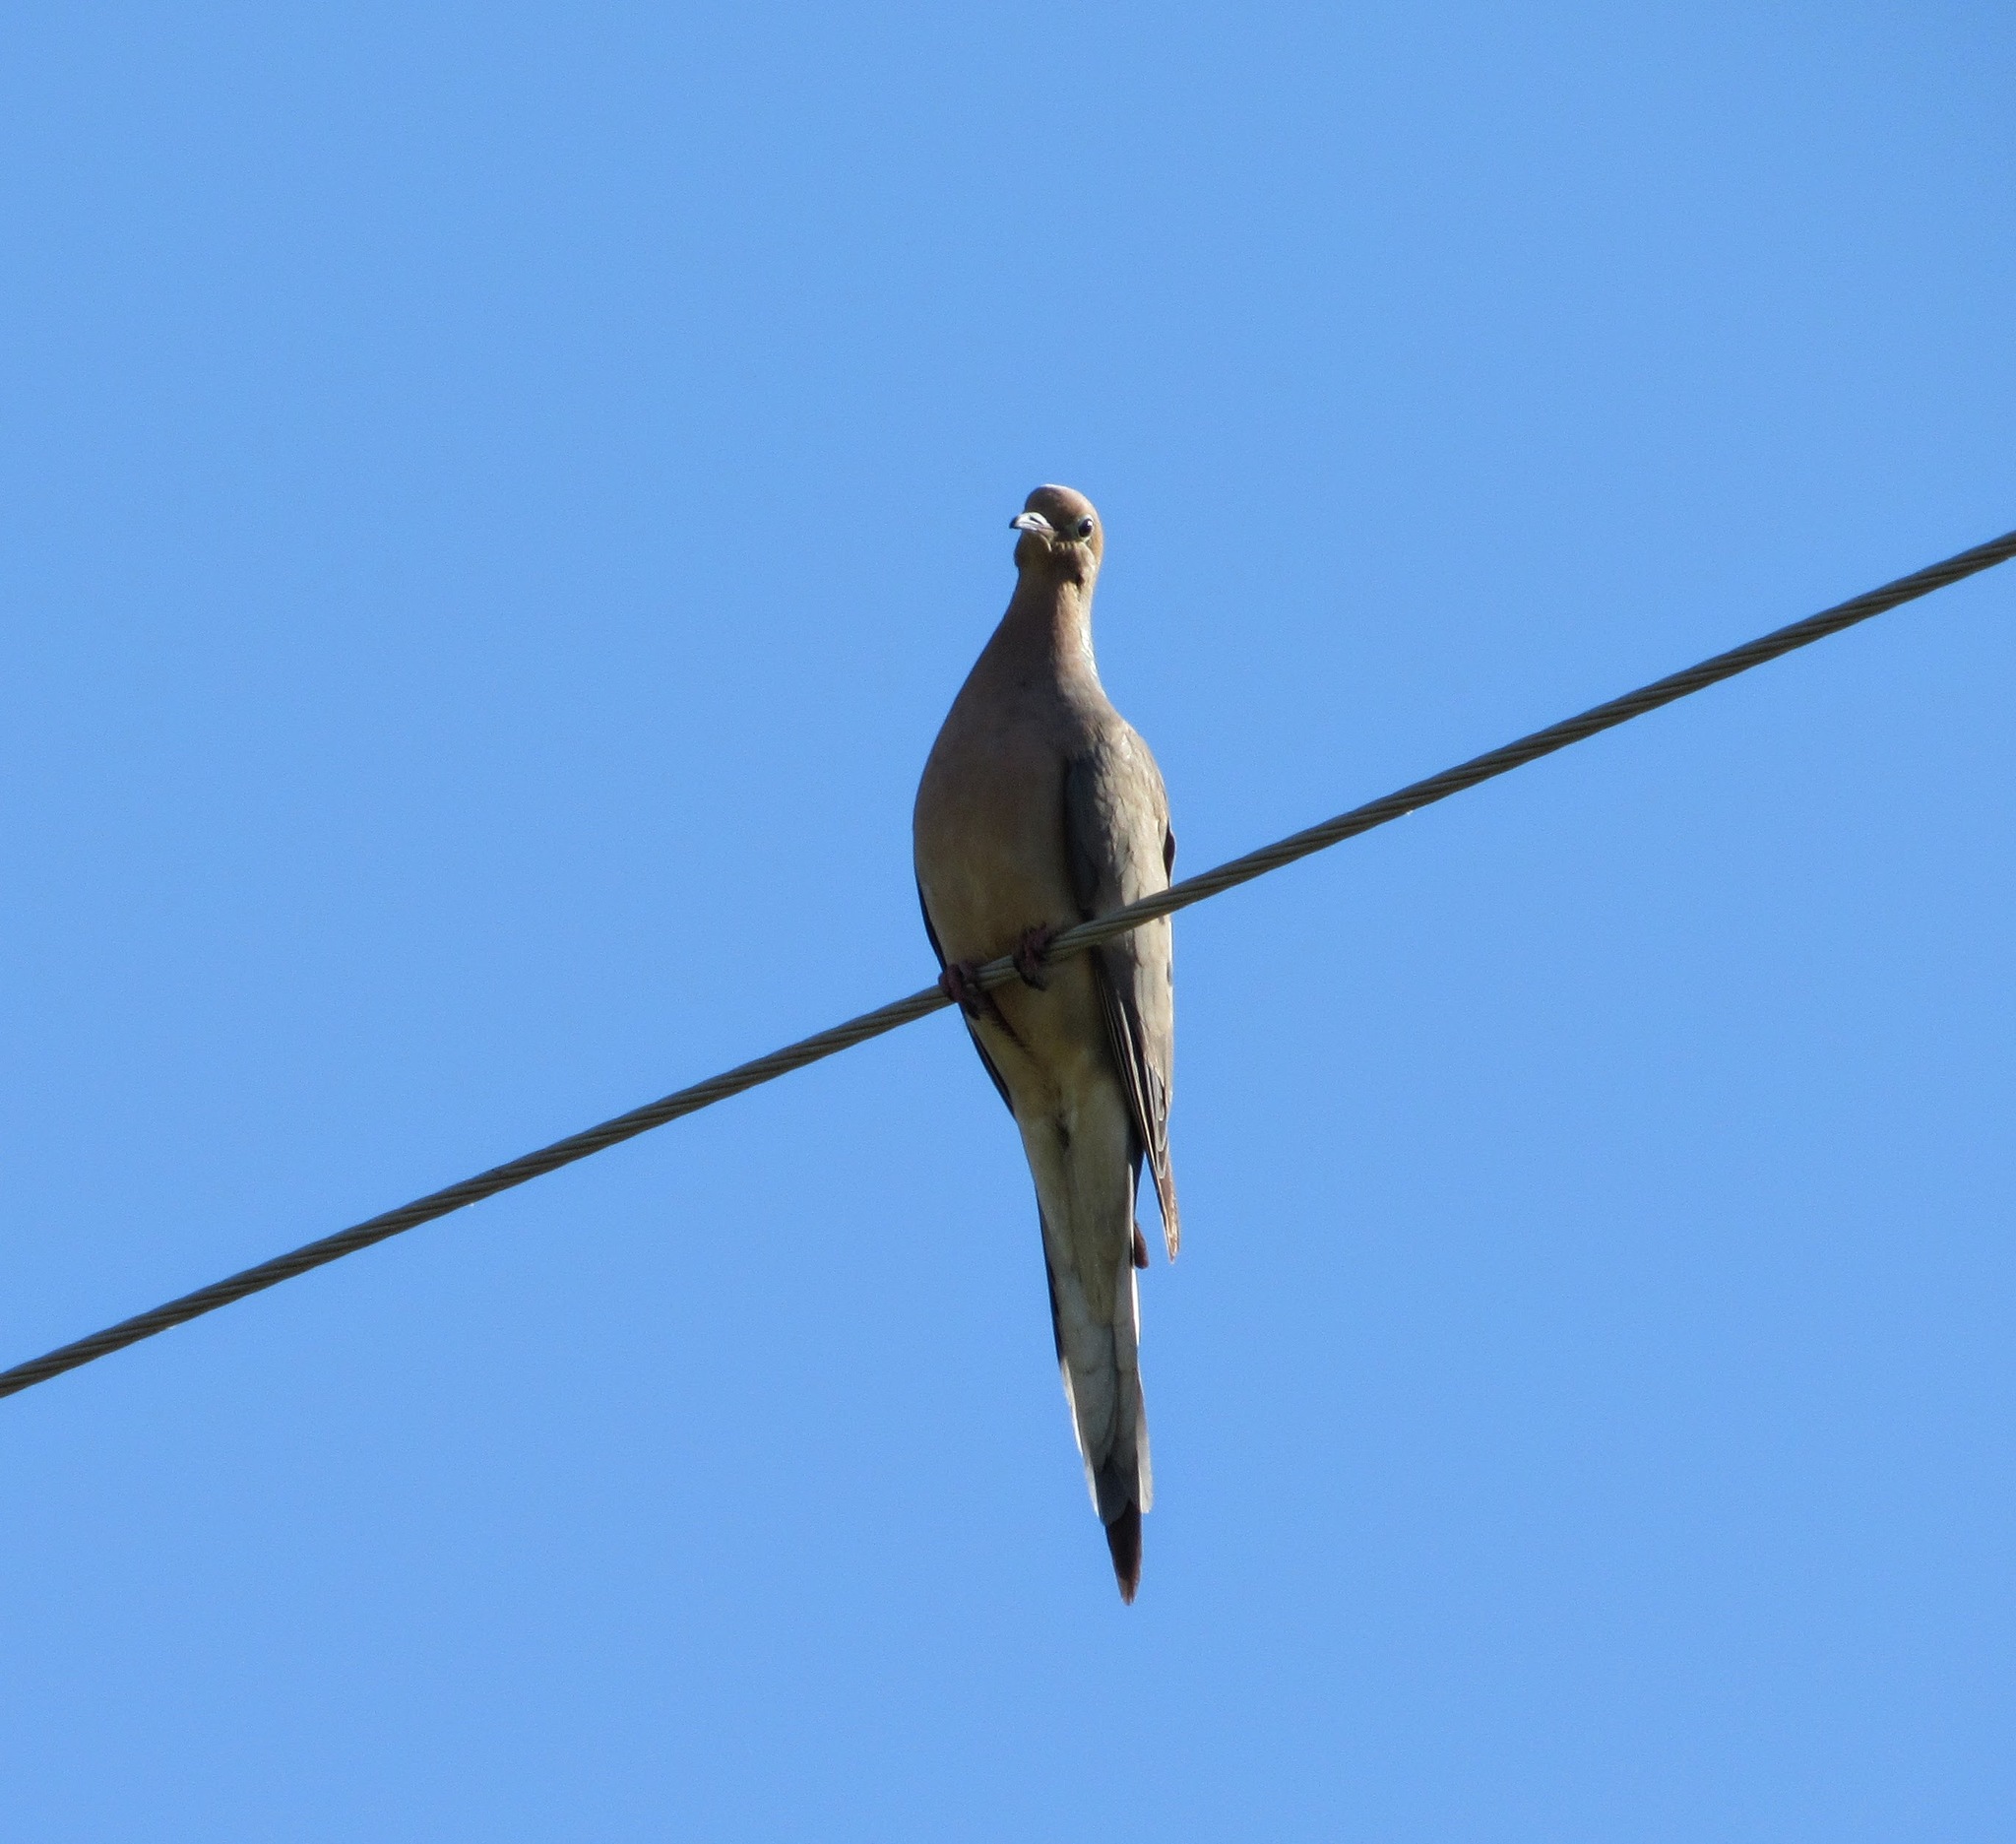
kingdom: Animalia
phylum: Chordata
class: Aves
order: Columbiformes
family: Columbidae
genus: Zenaida
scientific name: Zenaida macroura
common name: Mourning dove
